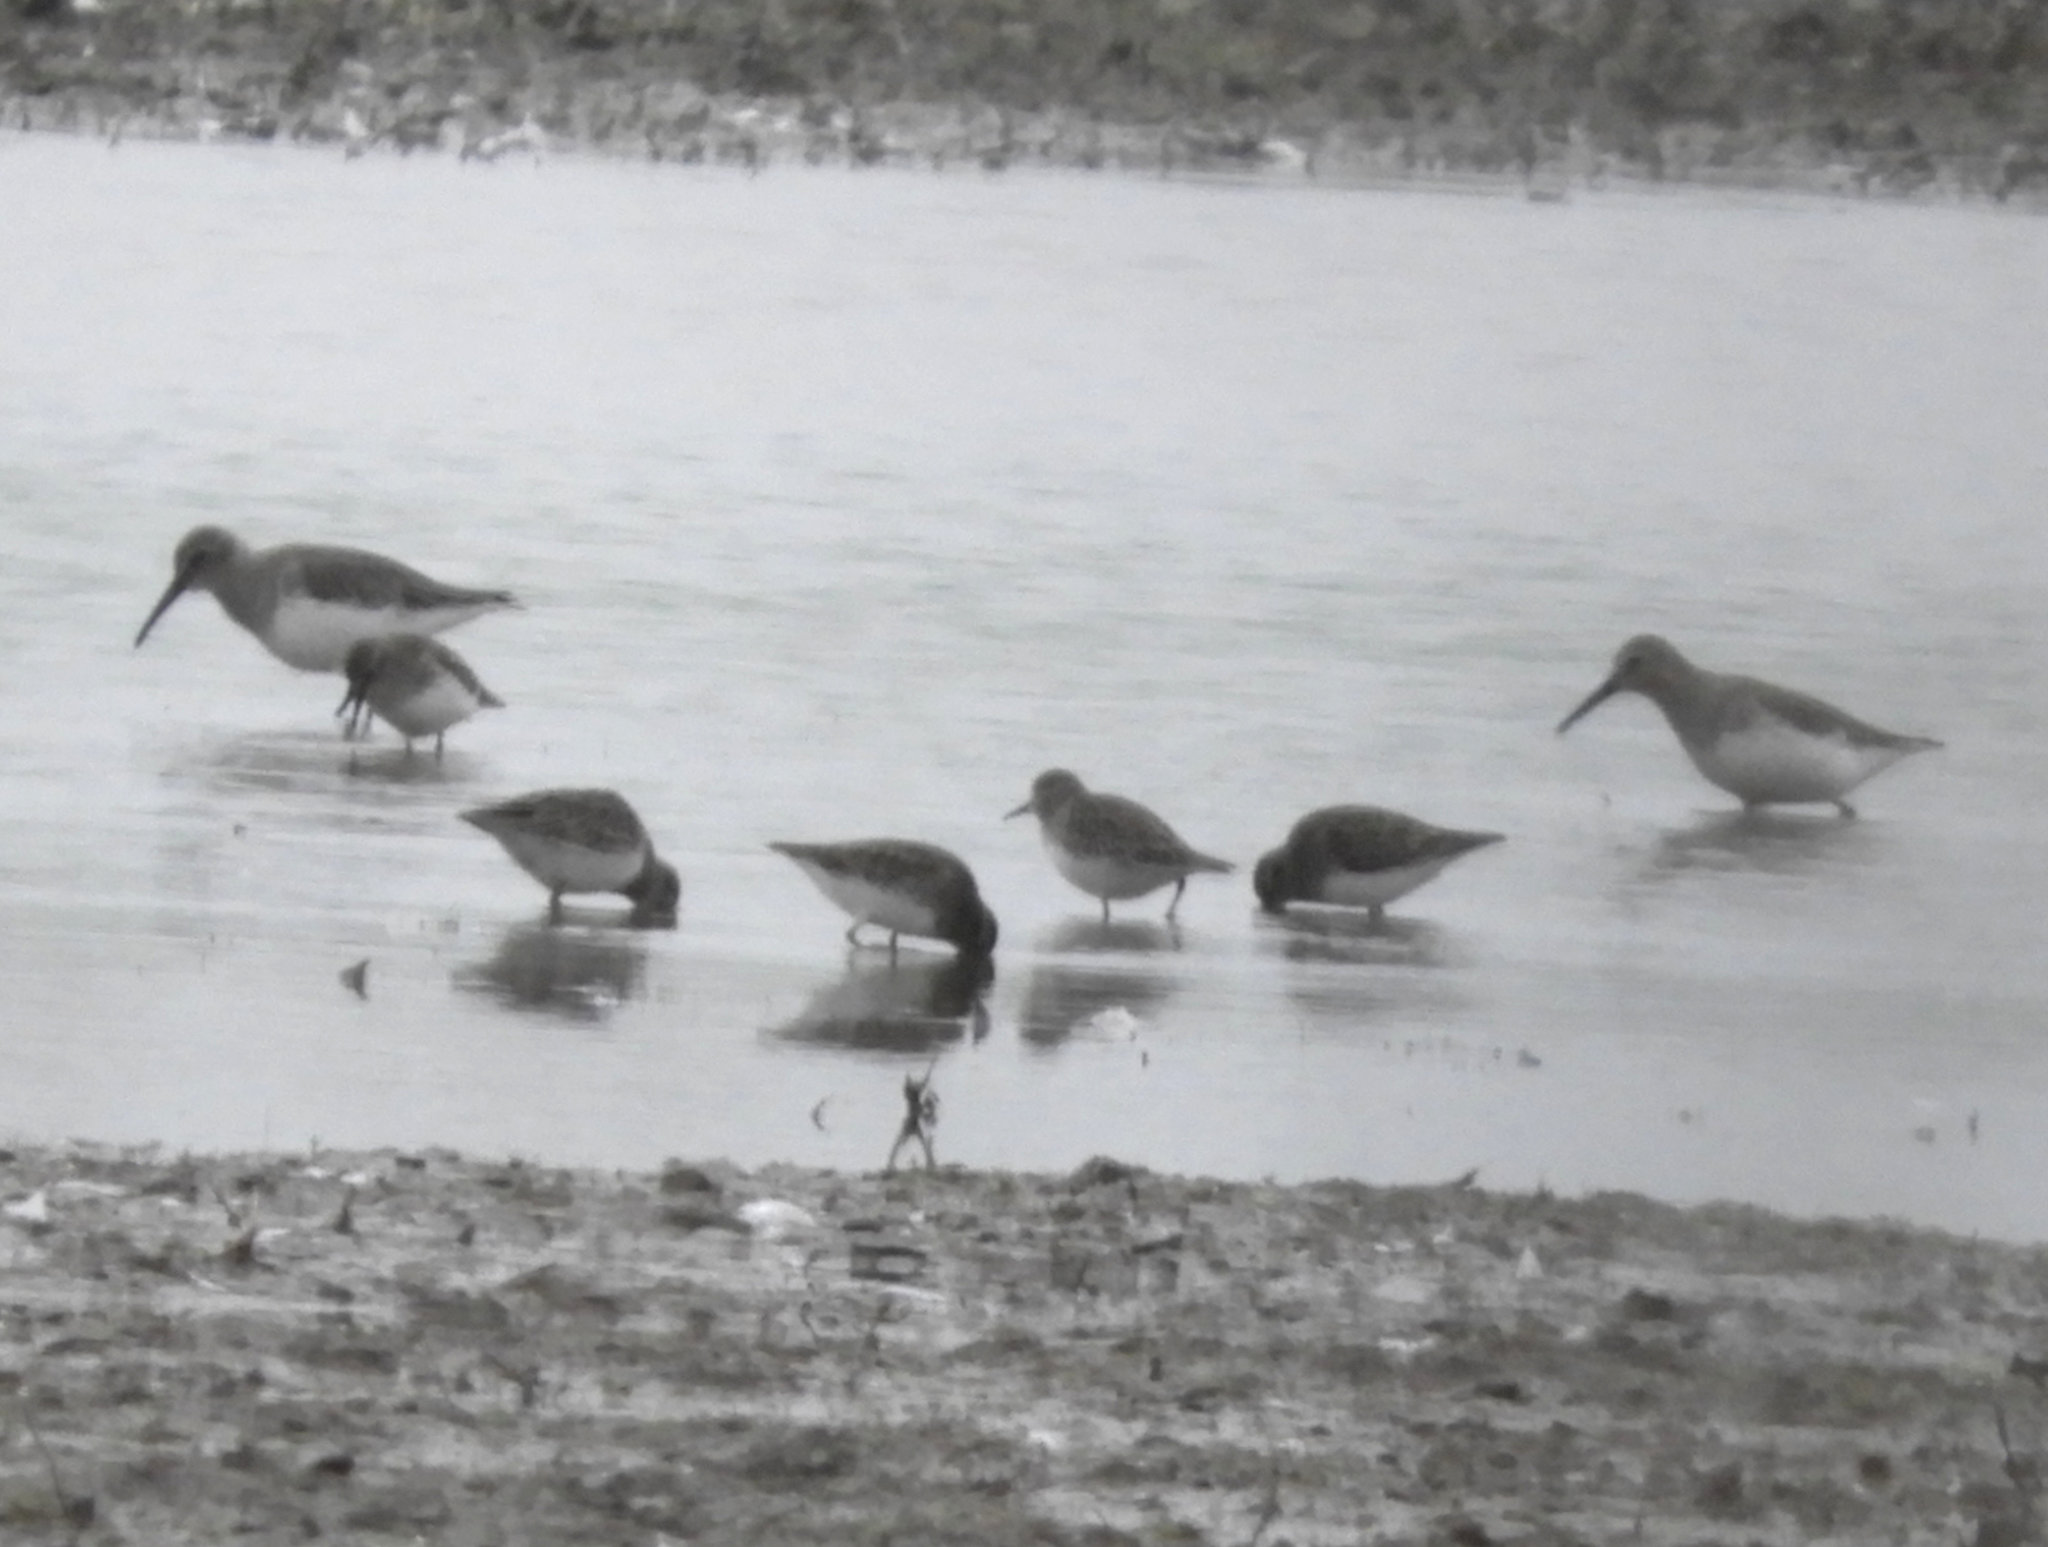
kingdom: Animalia
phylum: Chordata
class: Aves
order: Charadriiformes
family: Scolopacidae
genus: Calidris
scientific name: Calidris alpina
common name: Dunlin
